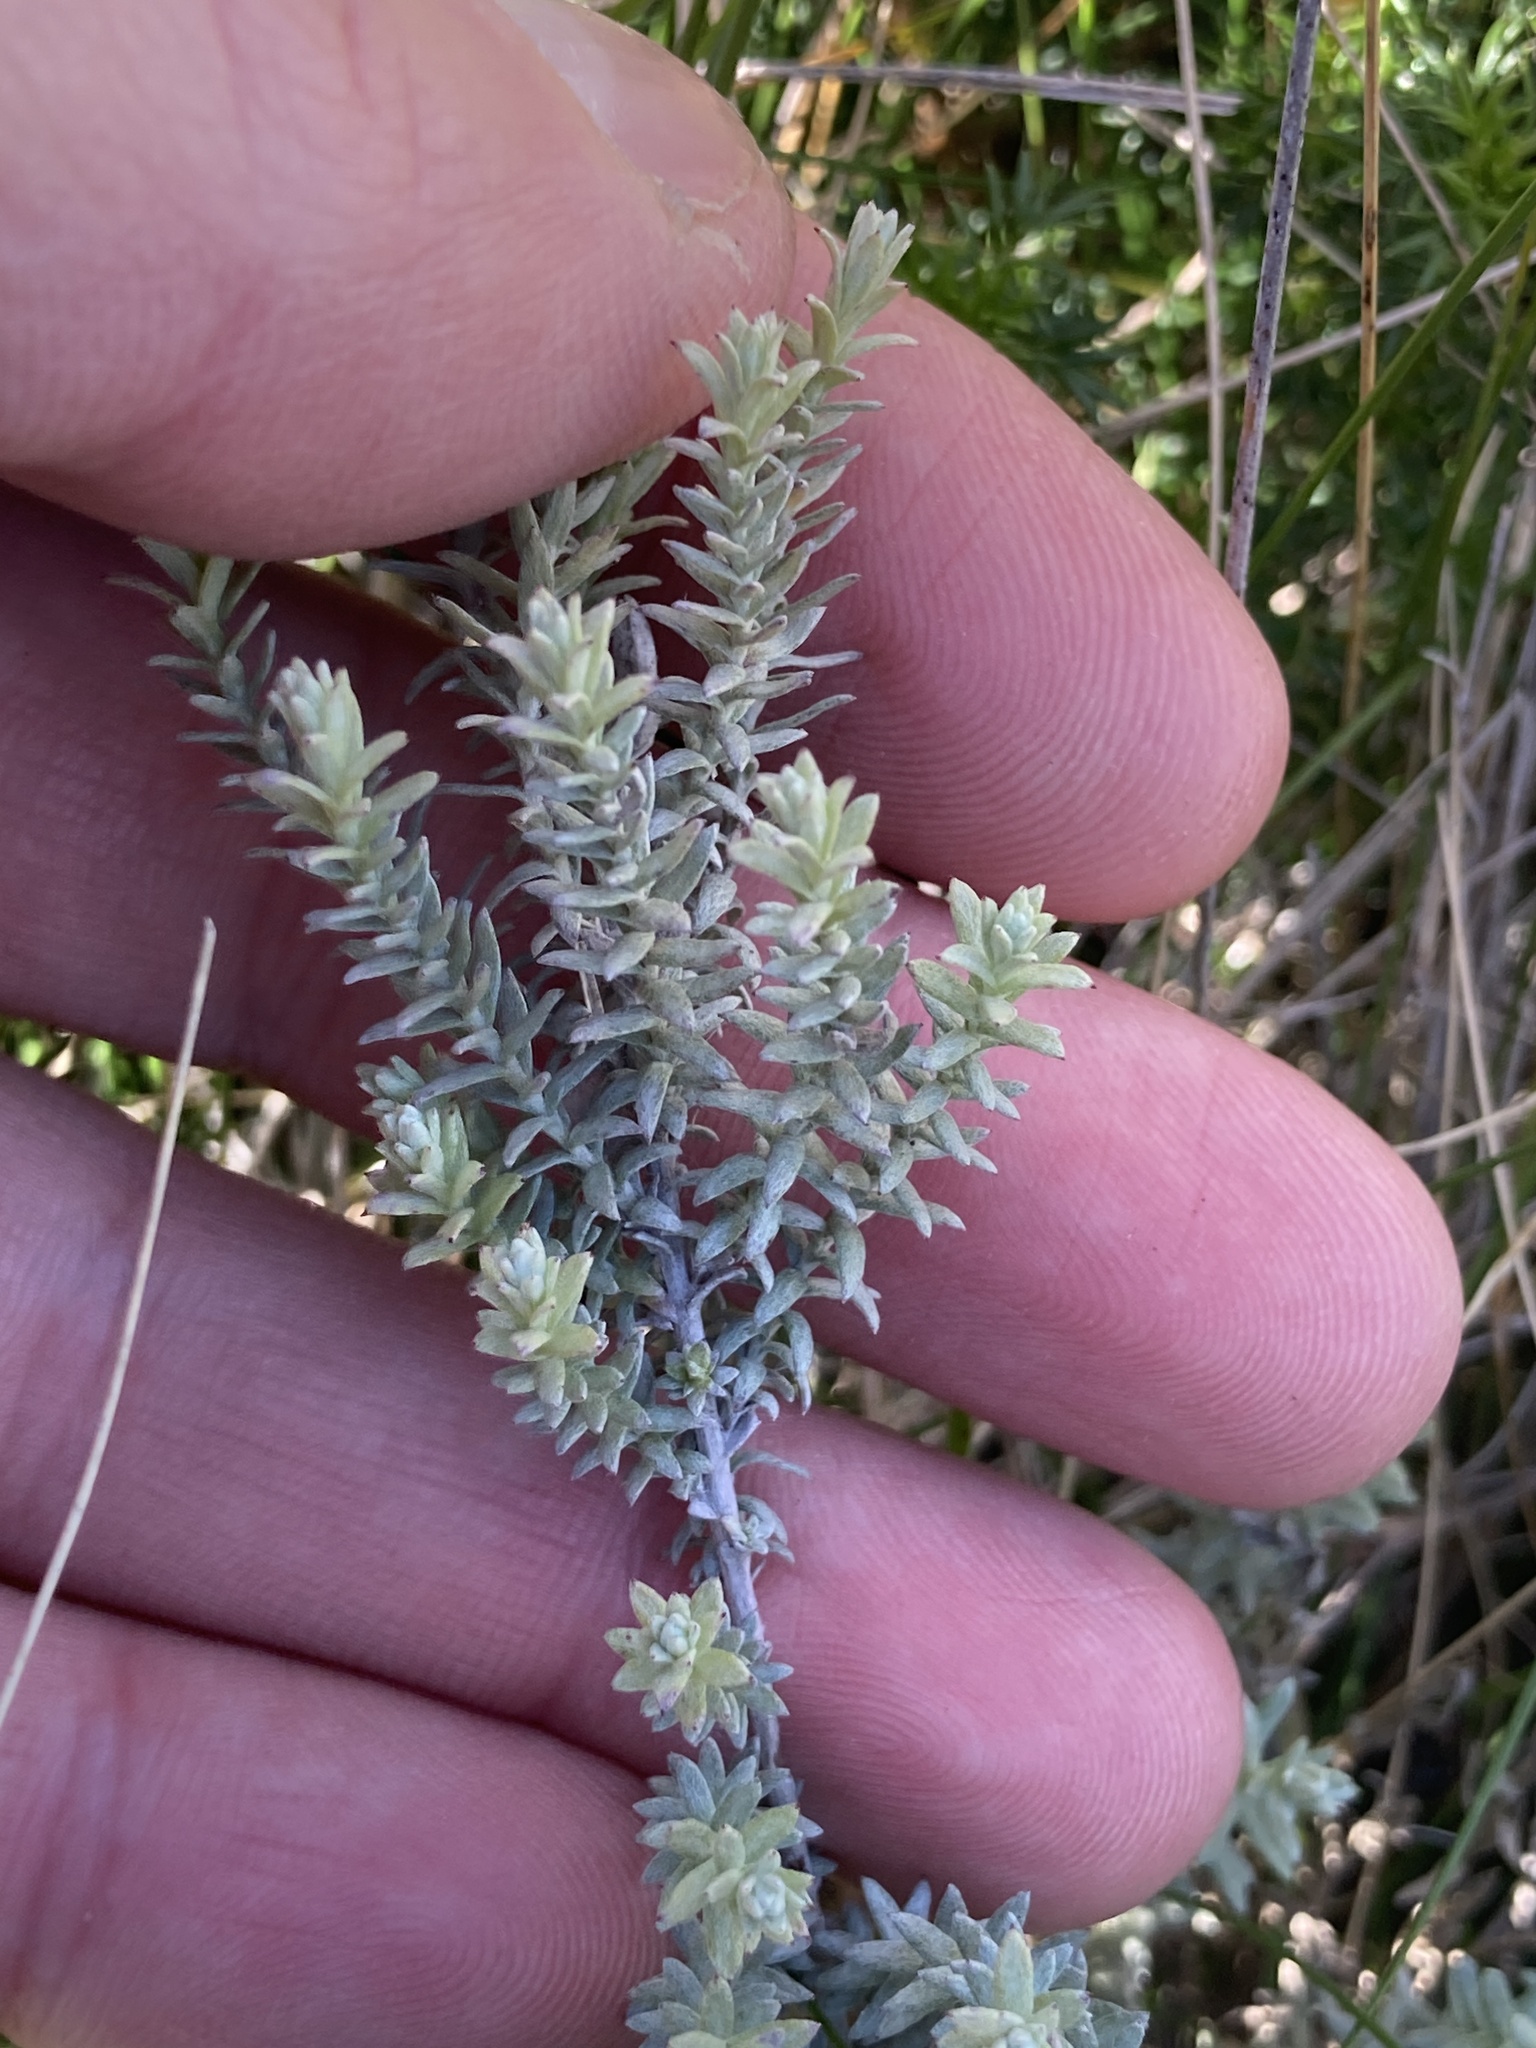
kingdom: Plantae
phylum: Tracheophyta
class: Magnoliopsida
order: Asterales
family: Asteraceae
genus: Lucilia
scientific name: Lucilia acutifolia
